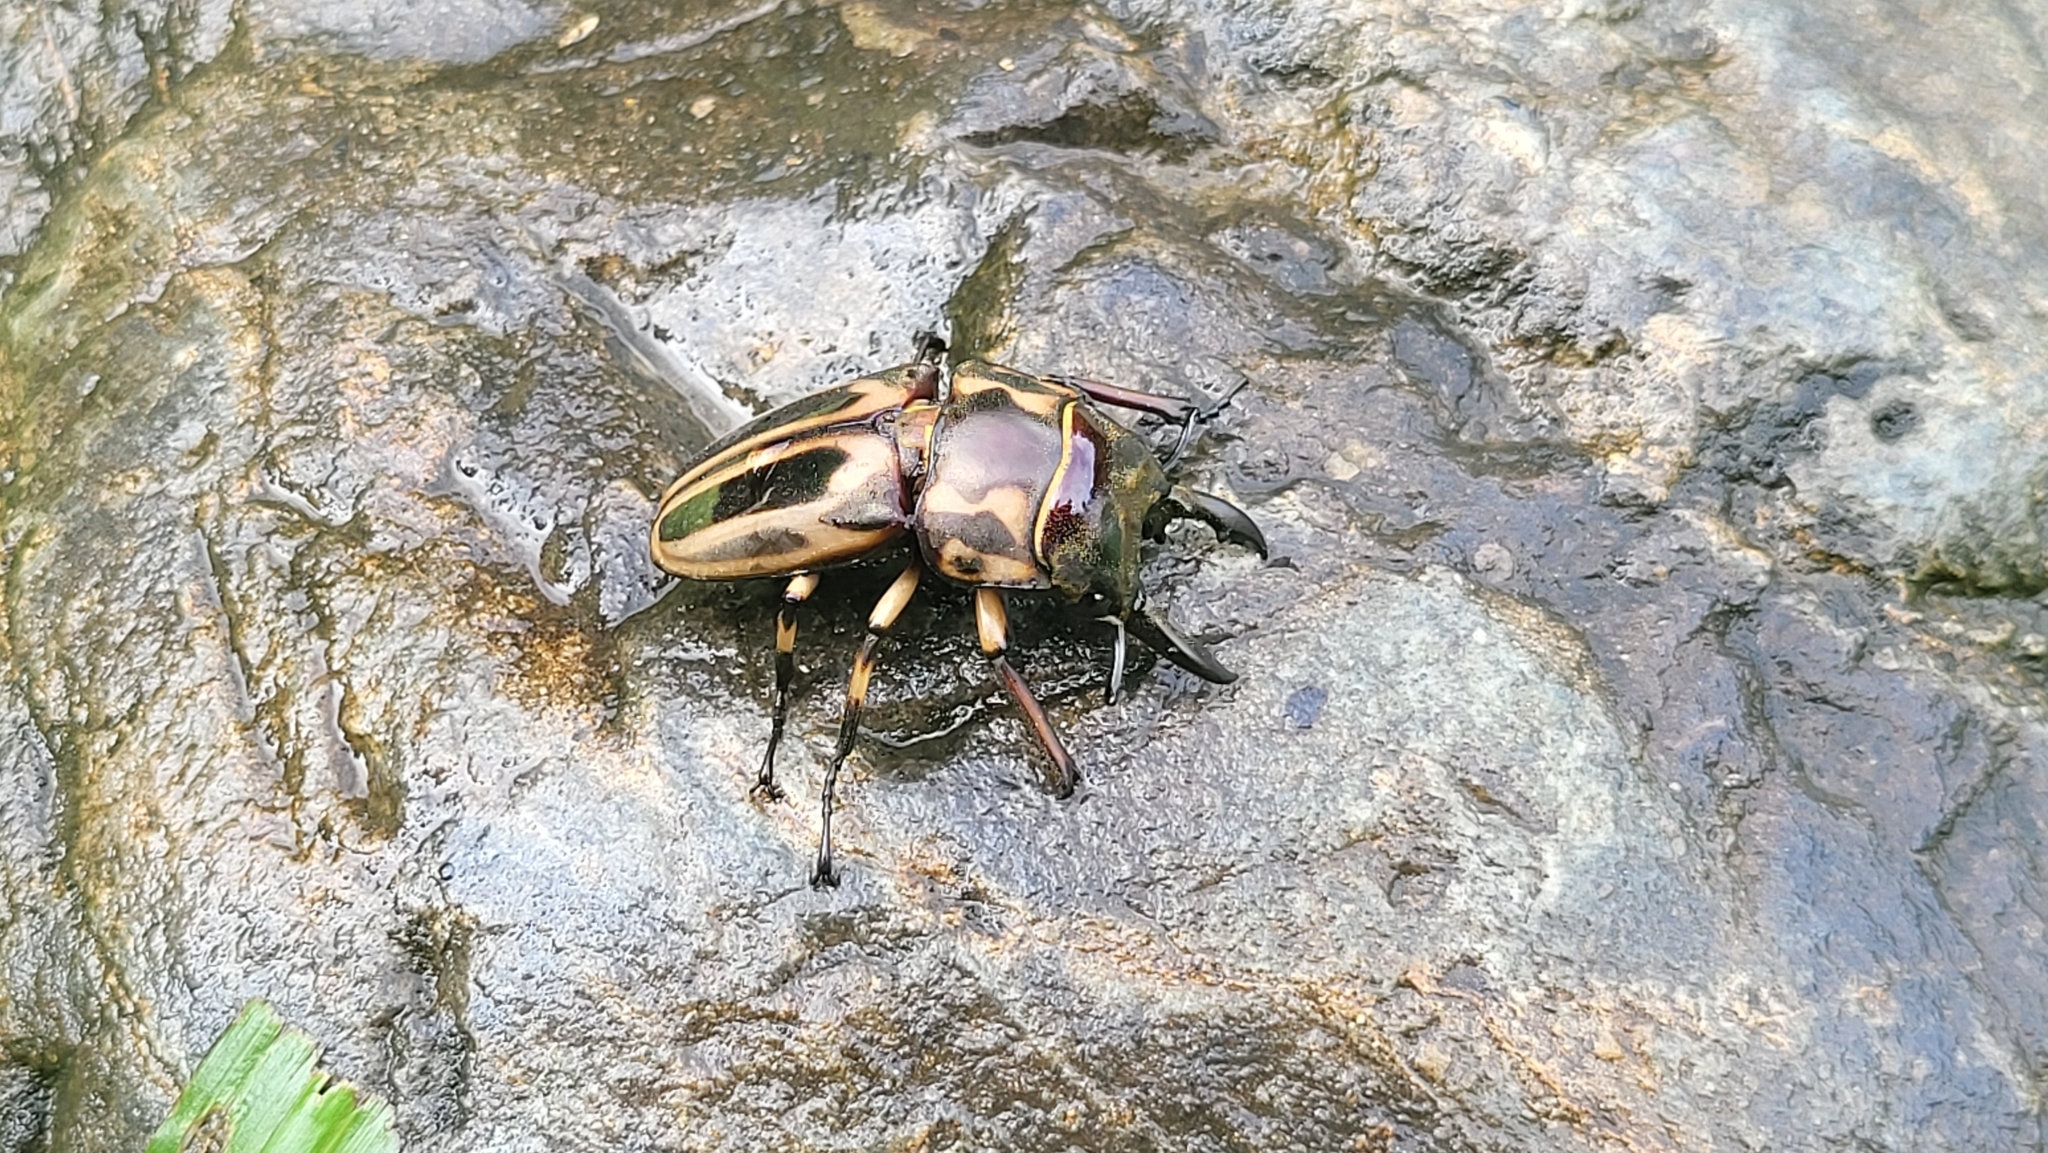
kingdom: Animalia
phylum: Arthropoda
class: Insecta
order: Coleoptera
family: Lucanidae
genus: Prosopocoilus
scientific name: Prosopocoilus zebra
